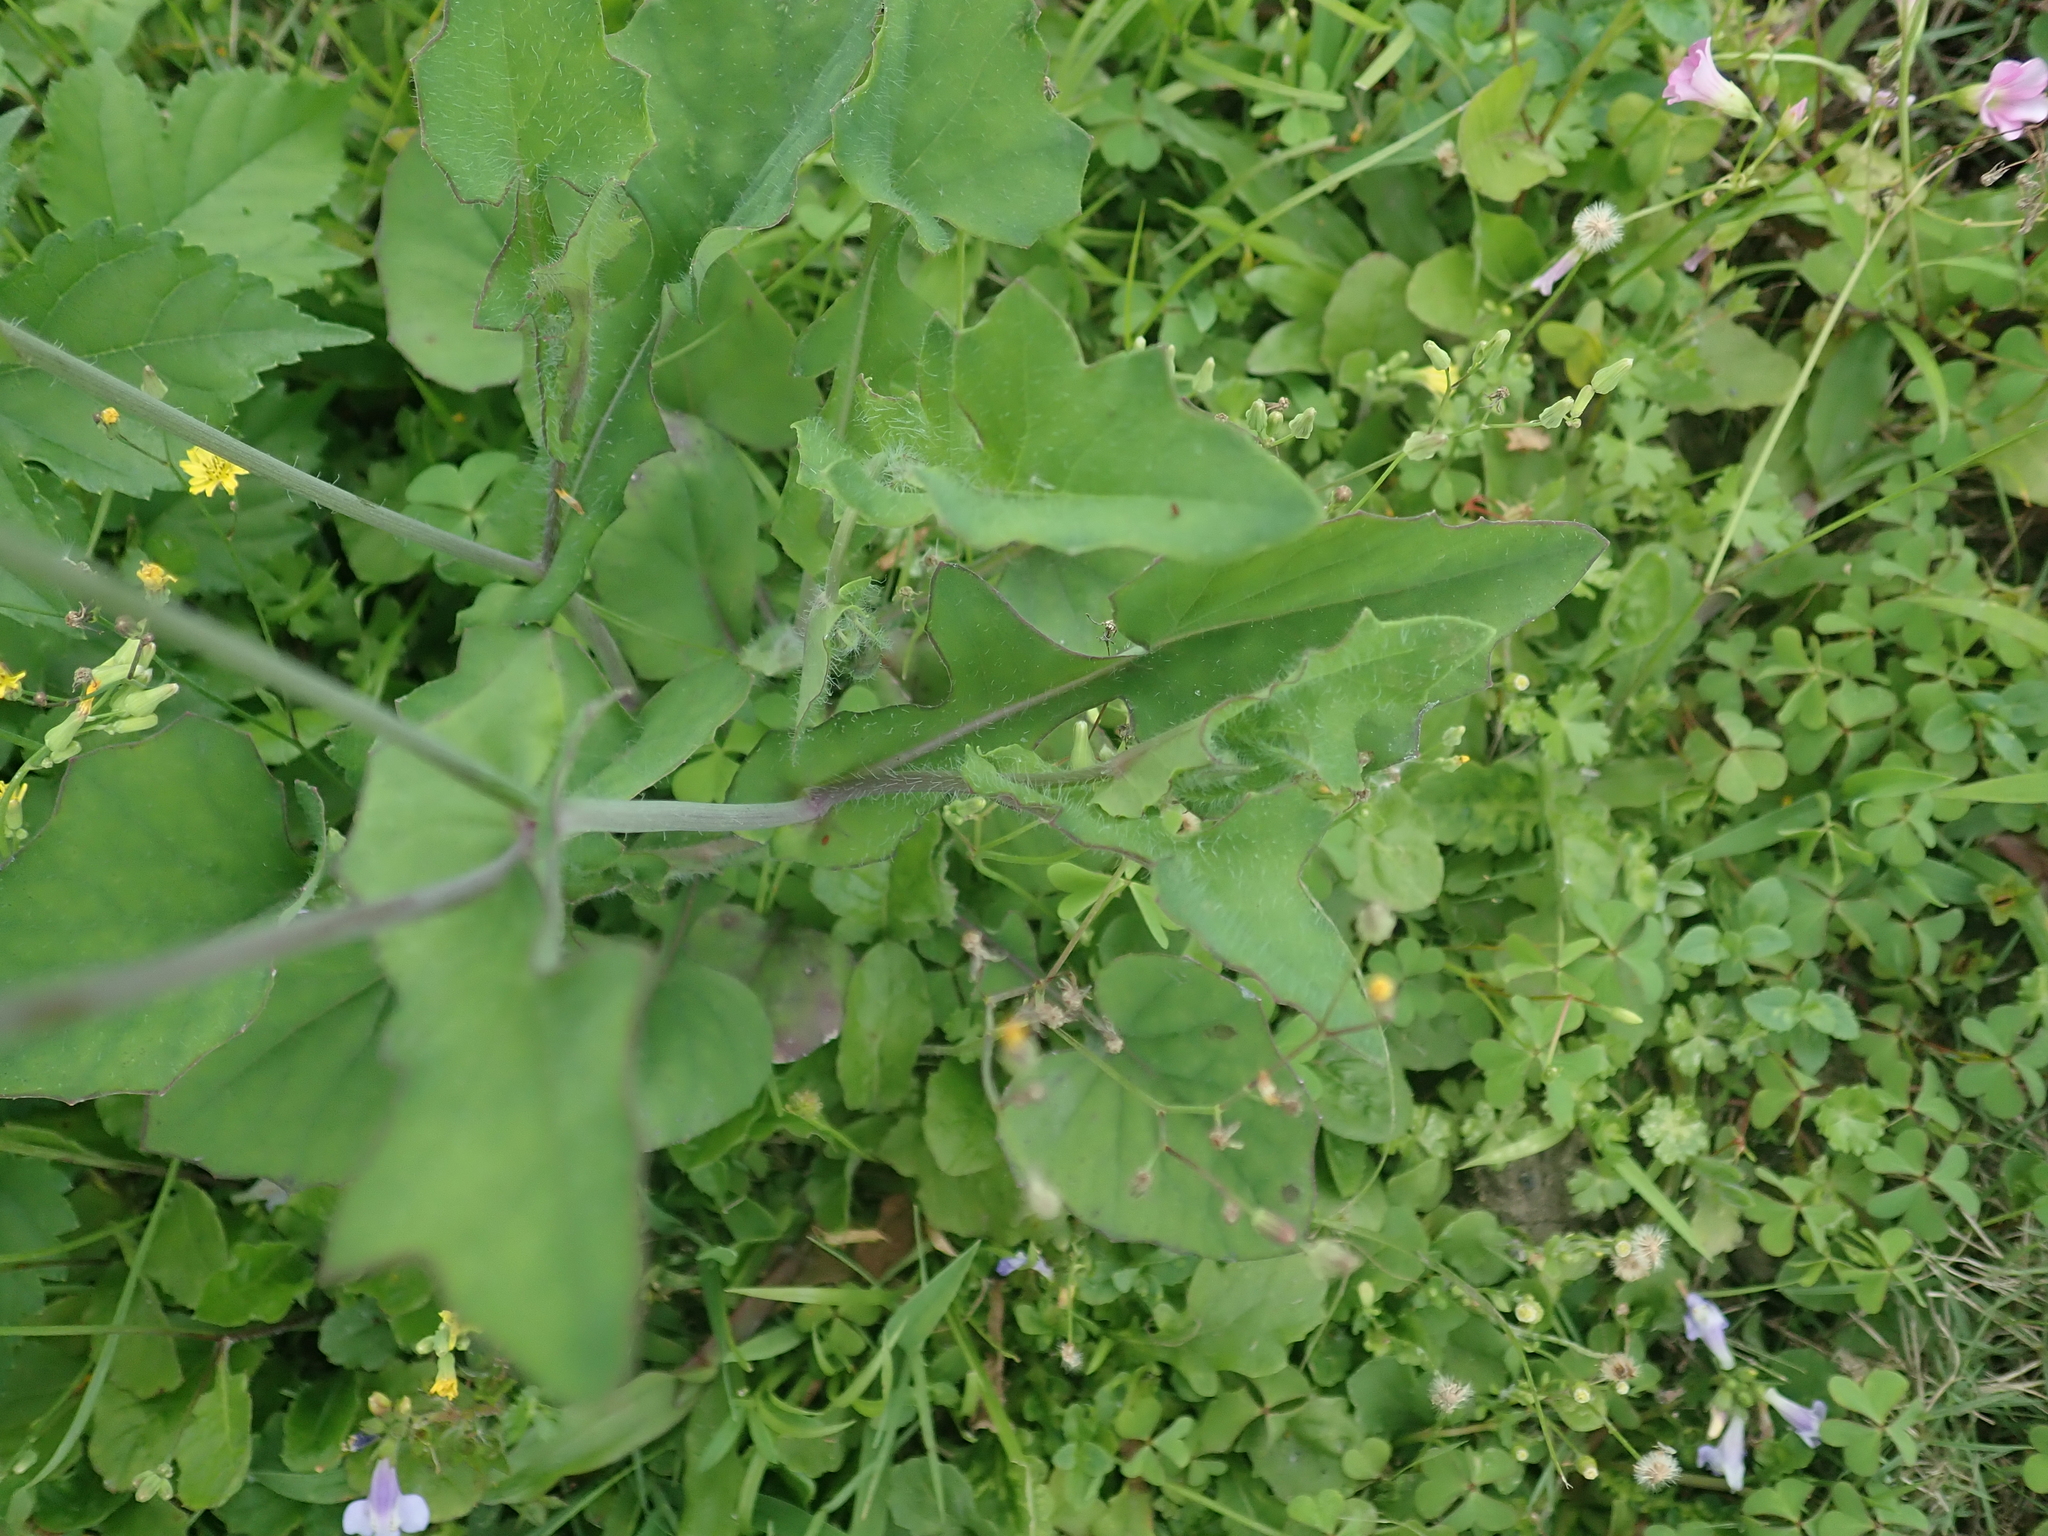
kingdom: Plantae
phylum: Tracheophyta
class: Magnoliopsida
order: Asterales
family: Asteraceae
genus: Emilia
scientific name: Emilia javanica
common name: Tassel-flower
